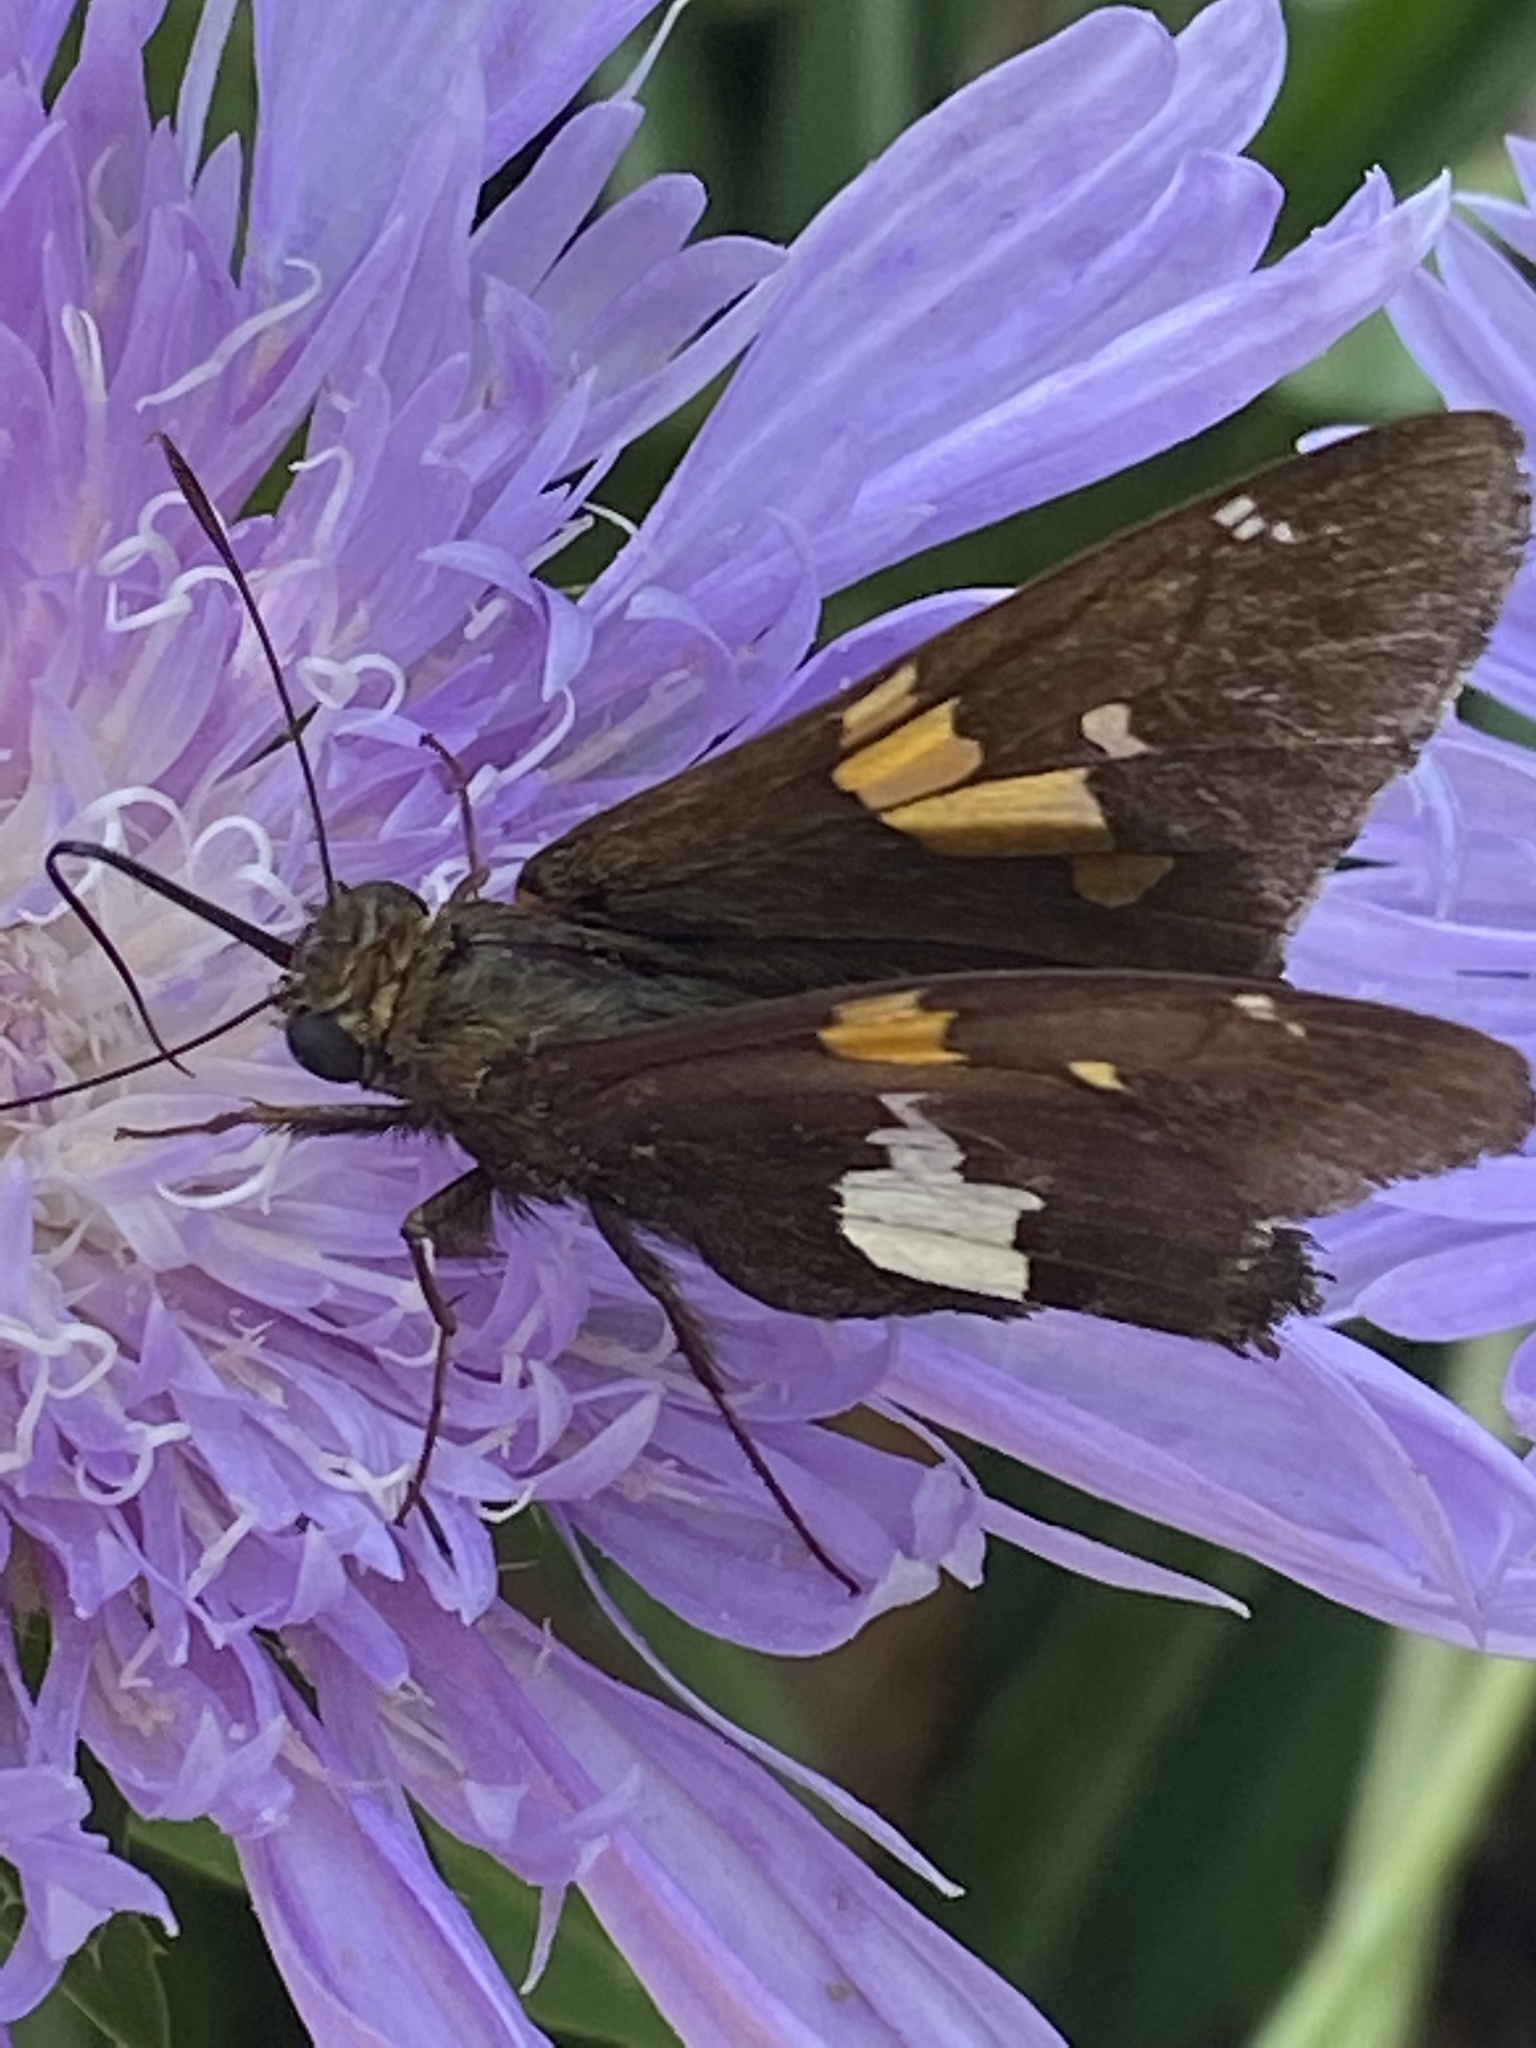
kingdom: Animalia
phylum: Arthropoda
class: Insecta
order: Lepidoptera
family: Hesperiidae
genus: Epargyreus
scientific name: Epargyreus clarus
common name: Silver-spotted skipper
